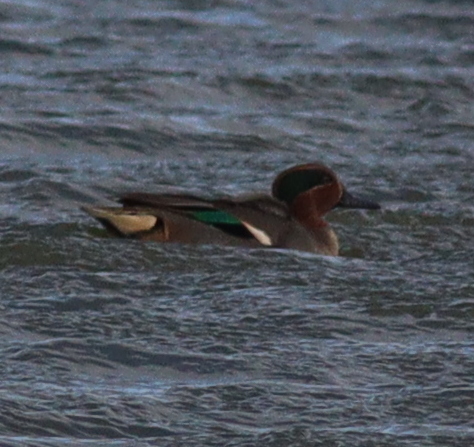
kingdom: Animalia
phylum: Chordata
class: Aves
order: Anseriformes
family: Anatidae
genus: Anas
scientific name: Anas crecca
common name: Eurasian teal
